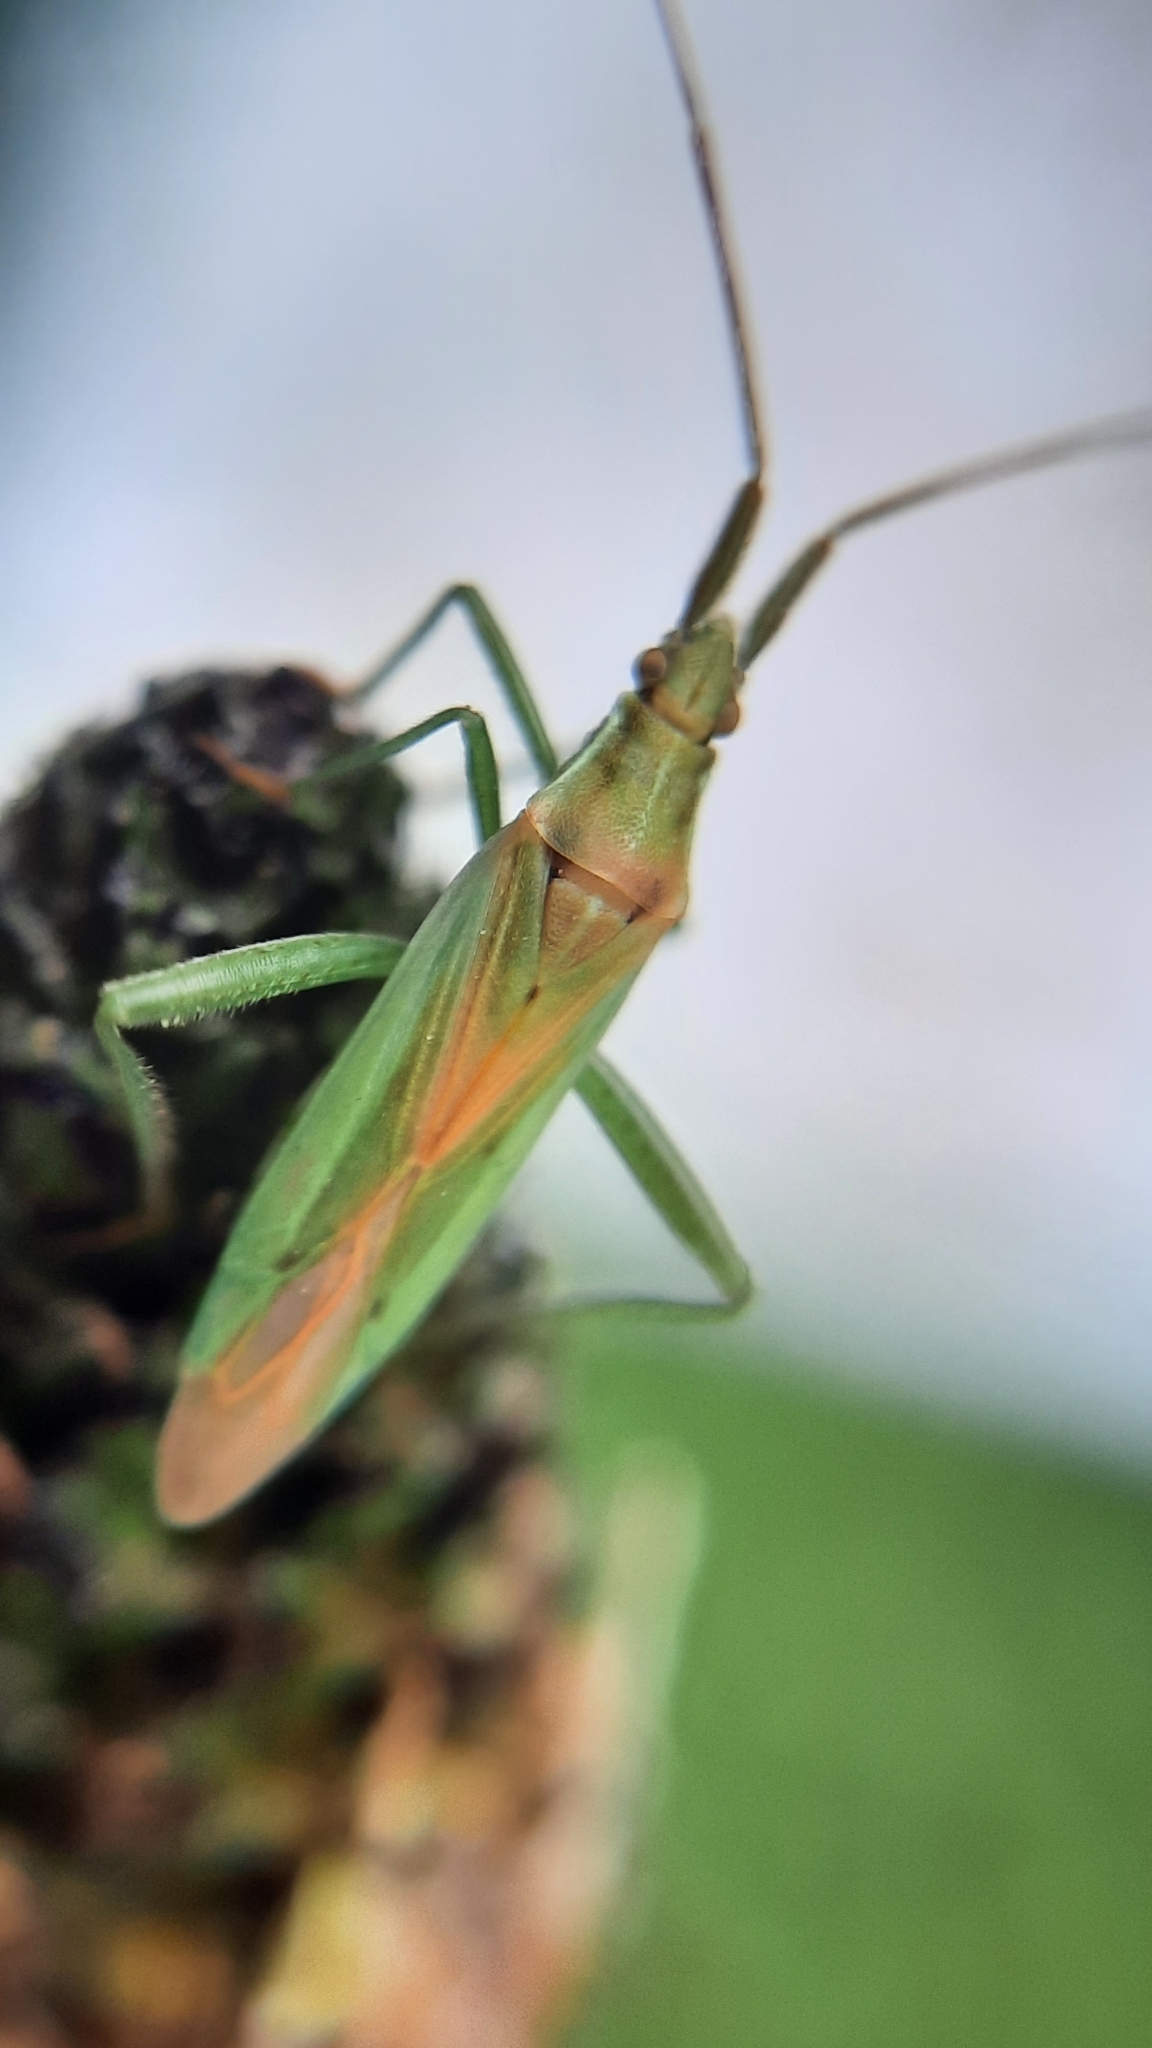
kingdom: Animalia
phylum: Arthropoda
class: Insecta
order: Hemiptera
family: Miridae
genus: Stenodema
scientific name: Stenodema laevigata
